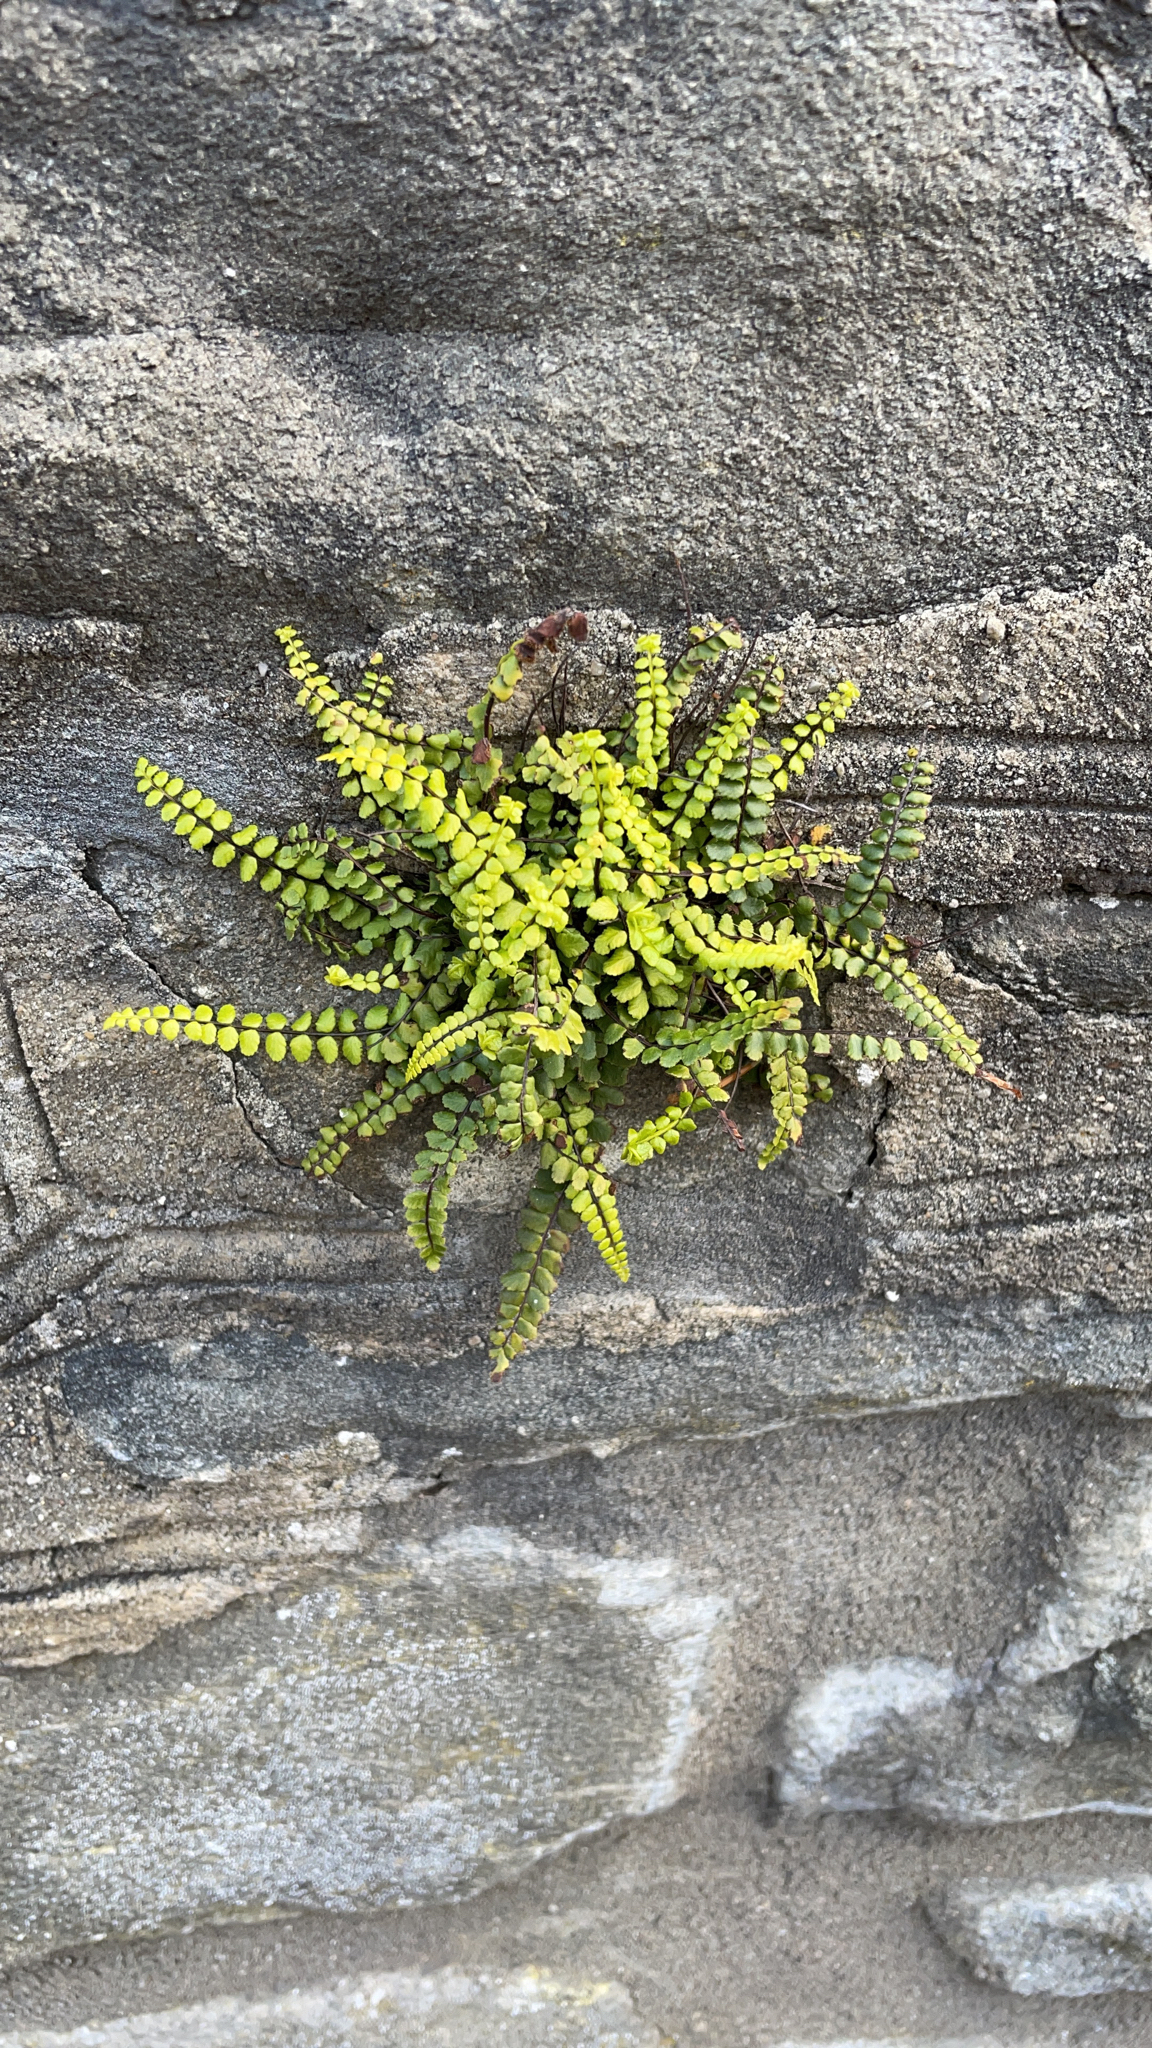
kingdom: Plantae
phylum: Tracheophyta
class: Polypodiopsida
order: Polypodiales
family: Aspleniaceae
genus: Asplenium
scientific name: Asplenium trichomanes
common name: Maidenhair spleenwort
